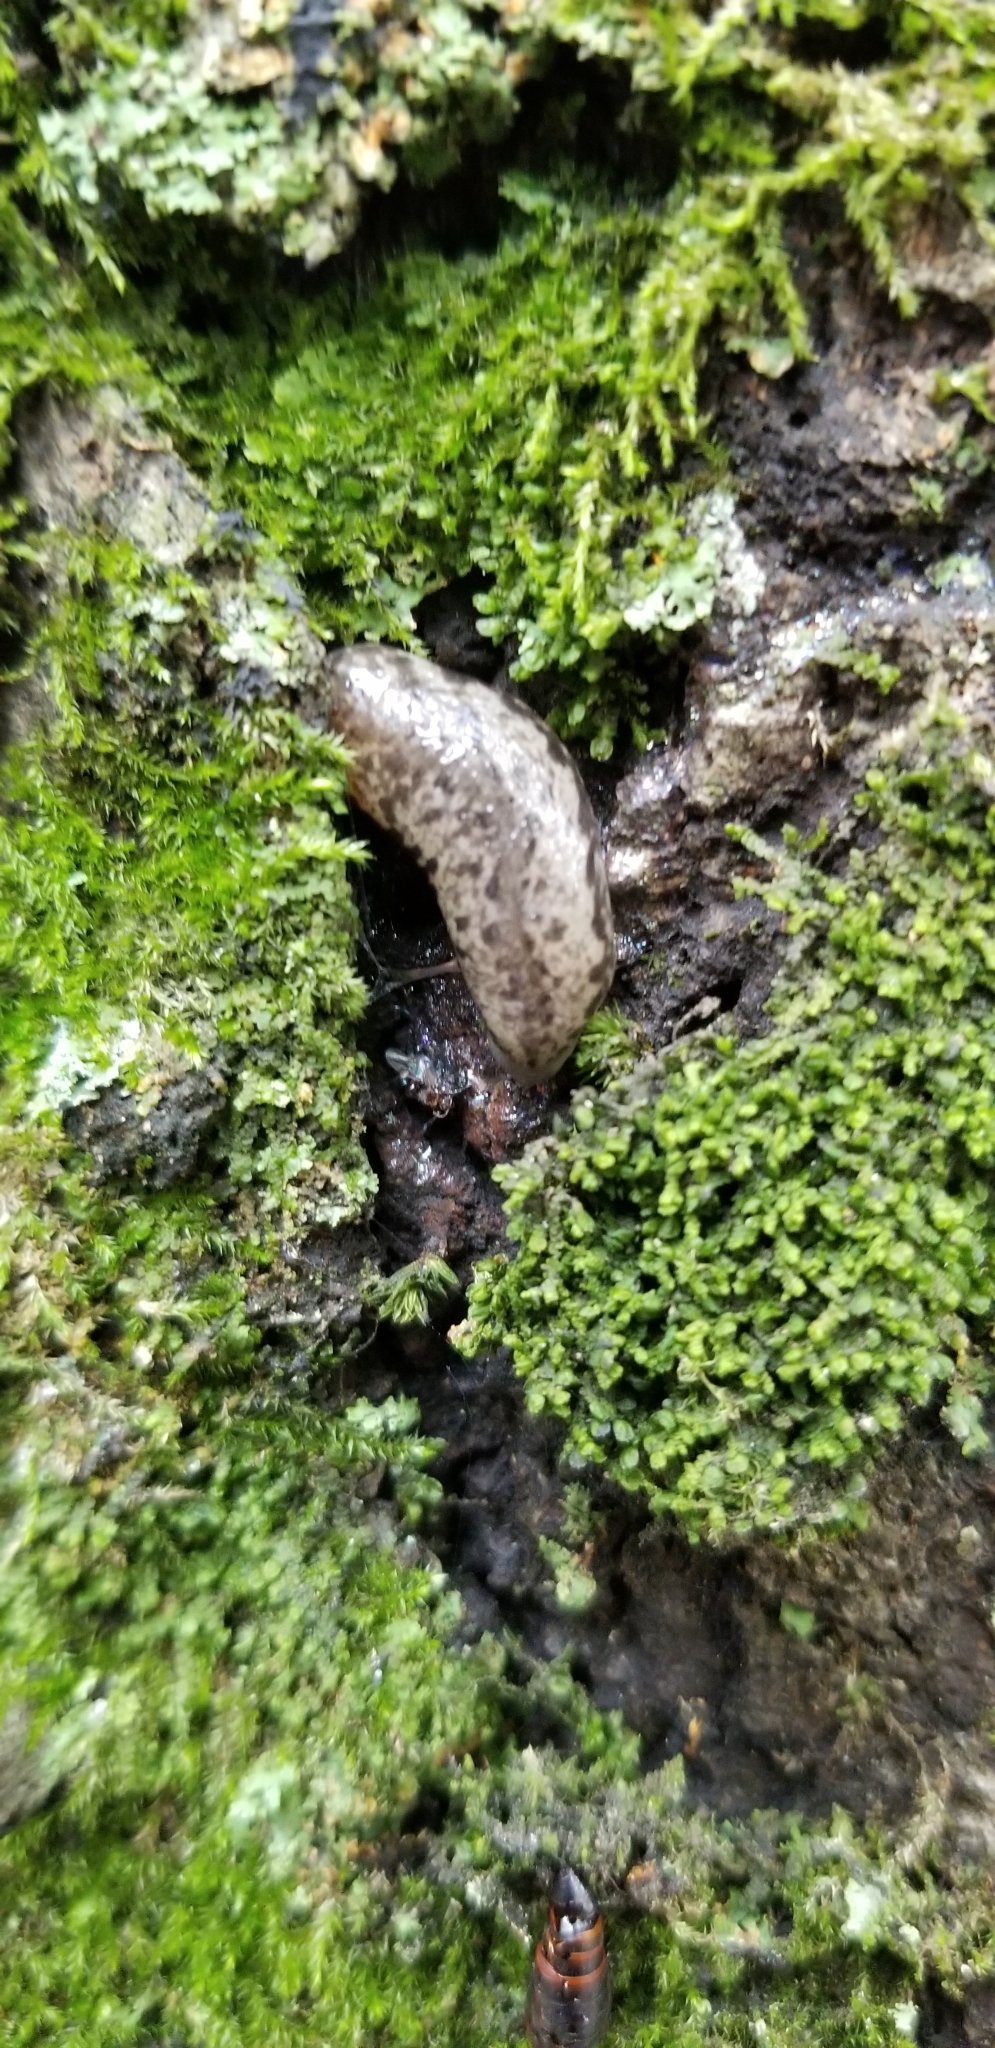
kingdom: Animalia
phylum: Mollusca
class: Gastropoda
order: Stylommatophora
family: Philomycidae
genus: Megapallifera
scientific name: Megapallifera mutabilis
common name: Changeable mantleslug
